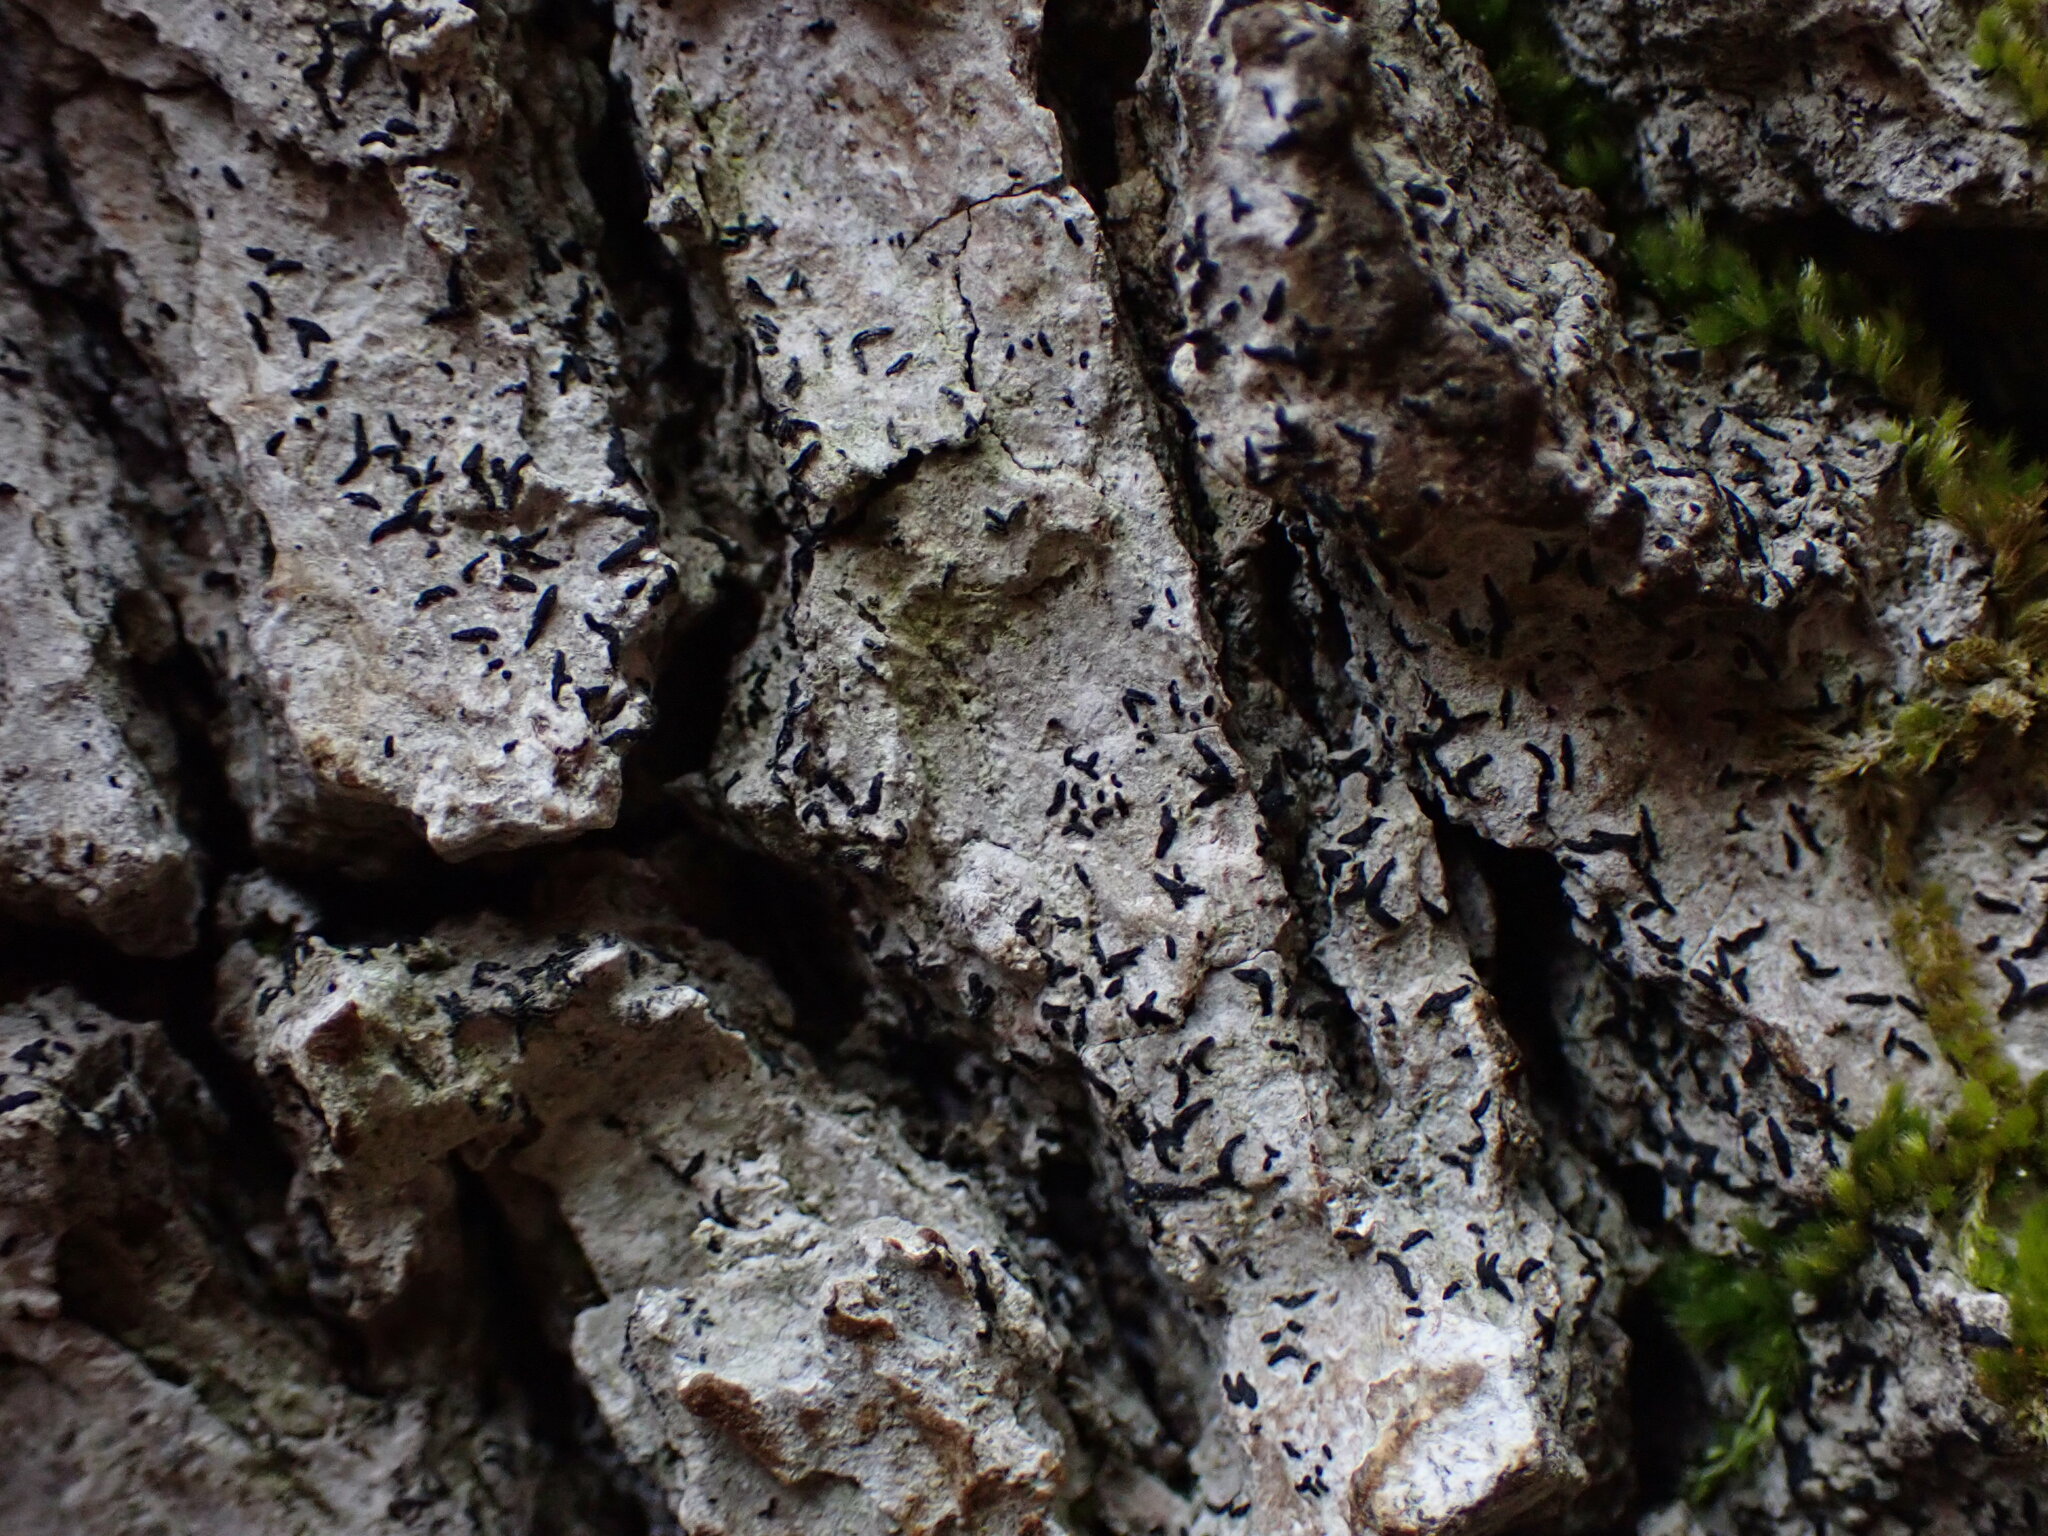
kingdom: Fungi
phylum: Ascomycota
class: Arthoniomycetes
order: Arthoniales
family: Lecanographaceae
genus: Alyxoria
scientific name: Alyxoria varia
